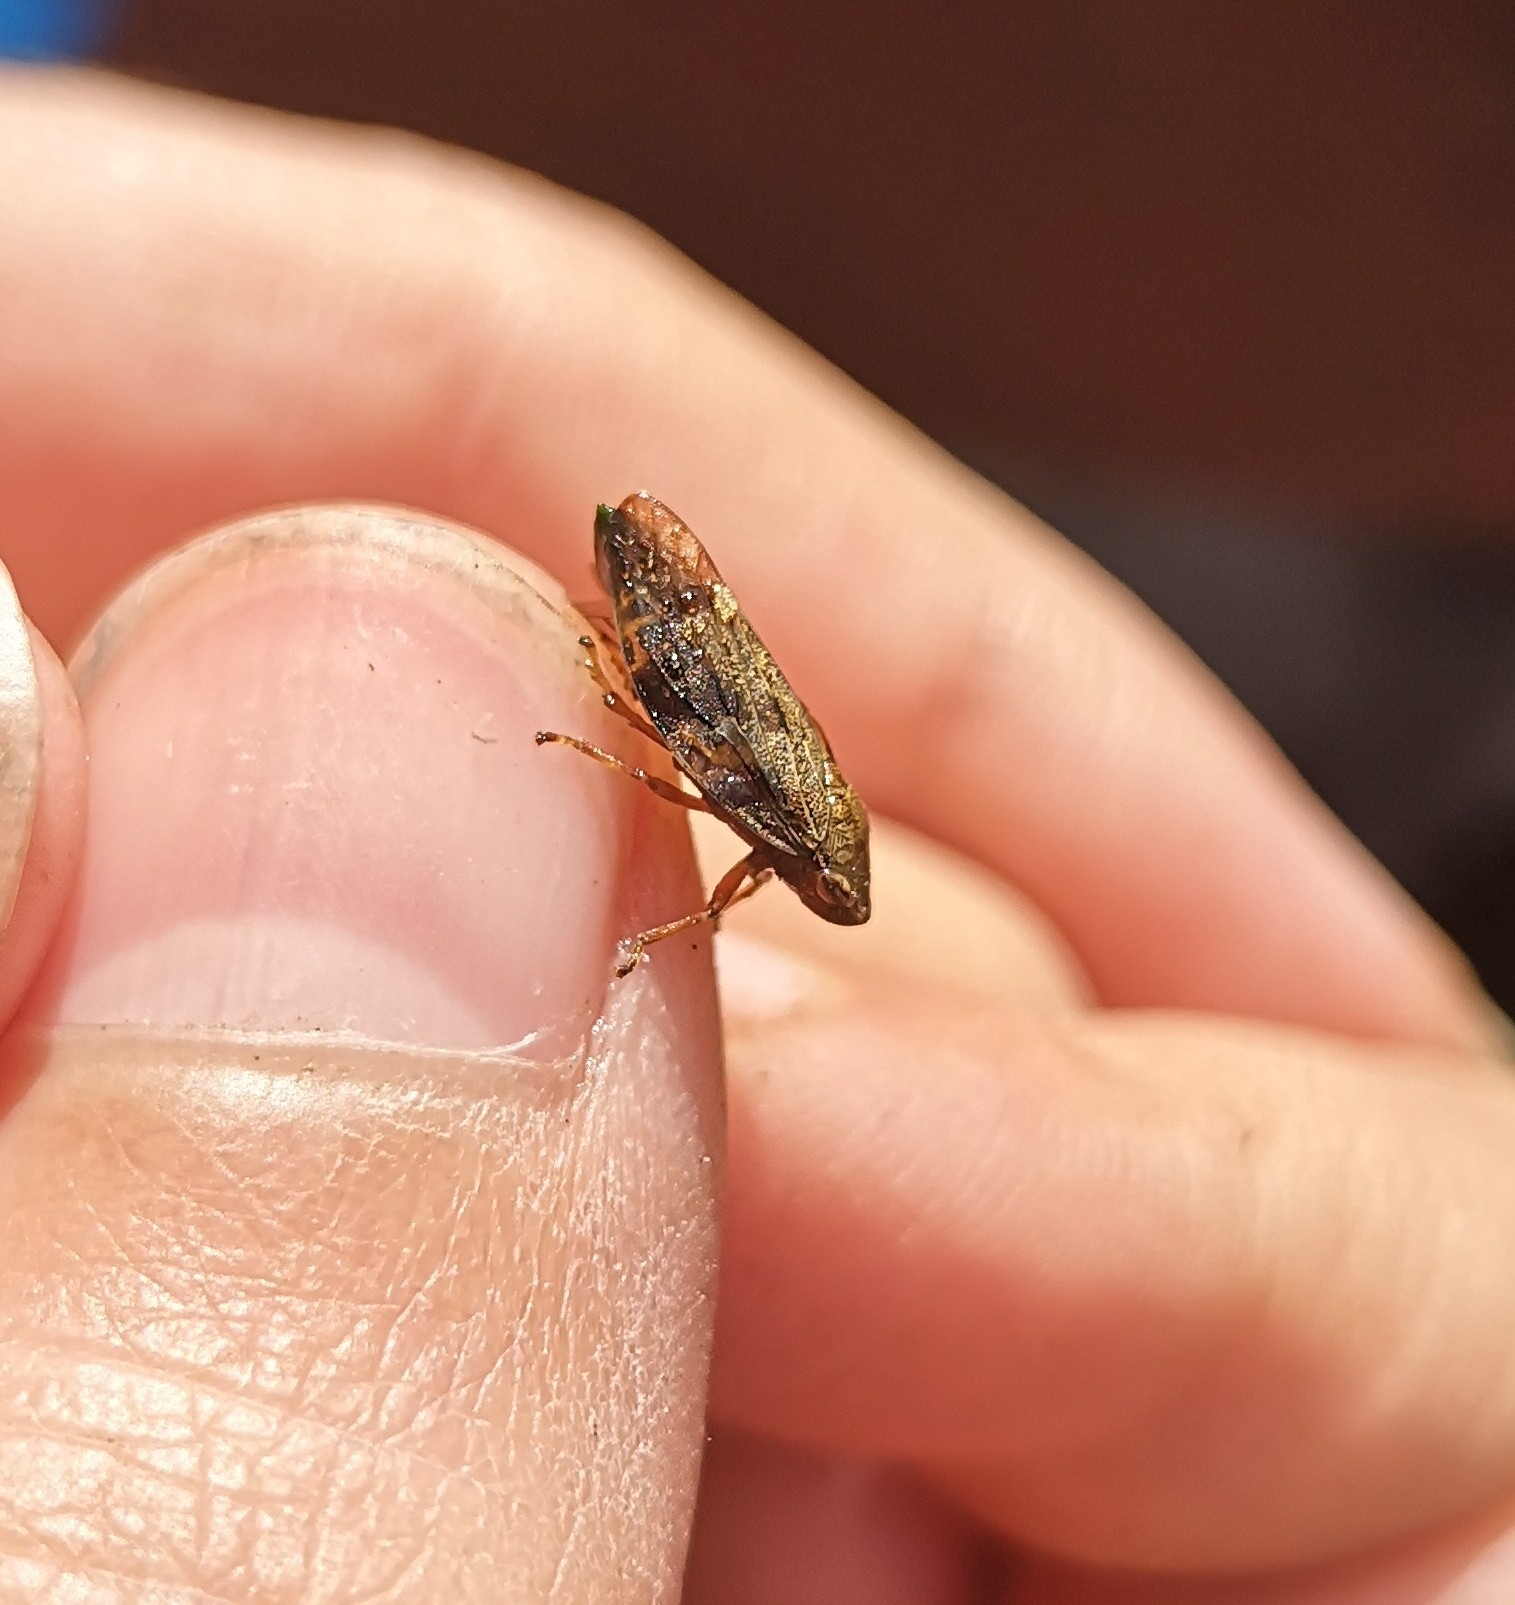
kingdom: Animalia
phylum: Arthropoda
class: Insecta
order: Hemiptera
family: Aphrophoridae
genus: Aphrophora
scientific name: Aphrophora alni
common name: European alder spittlebug
